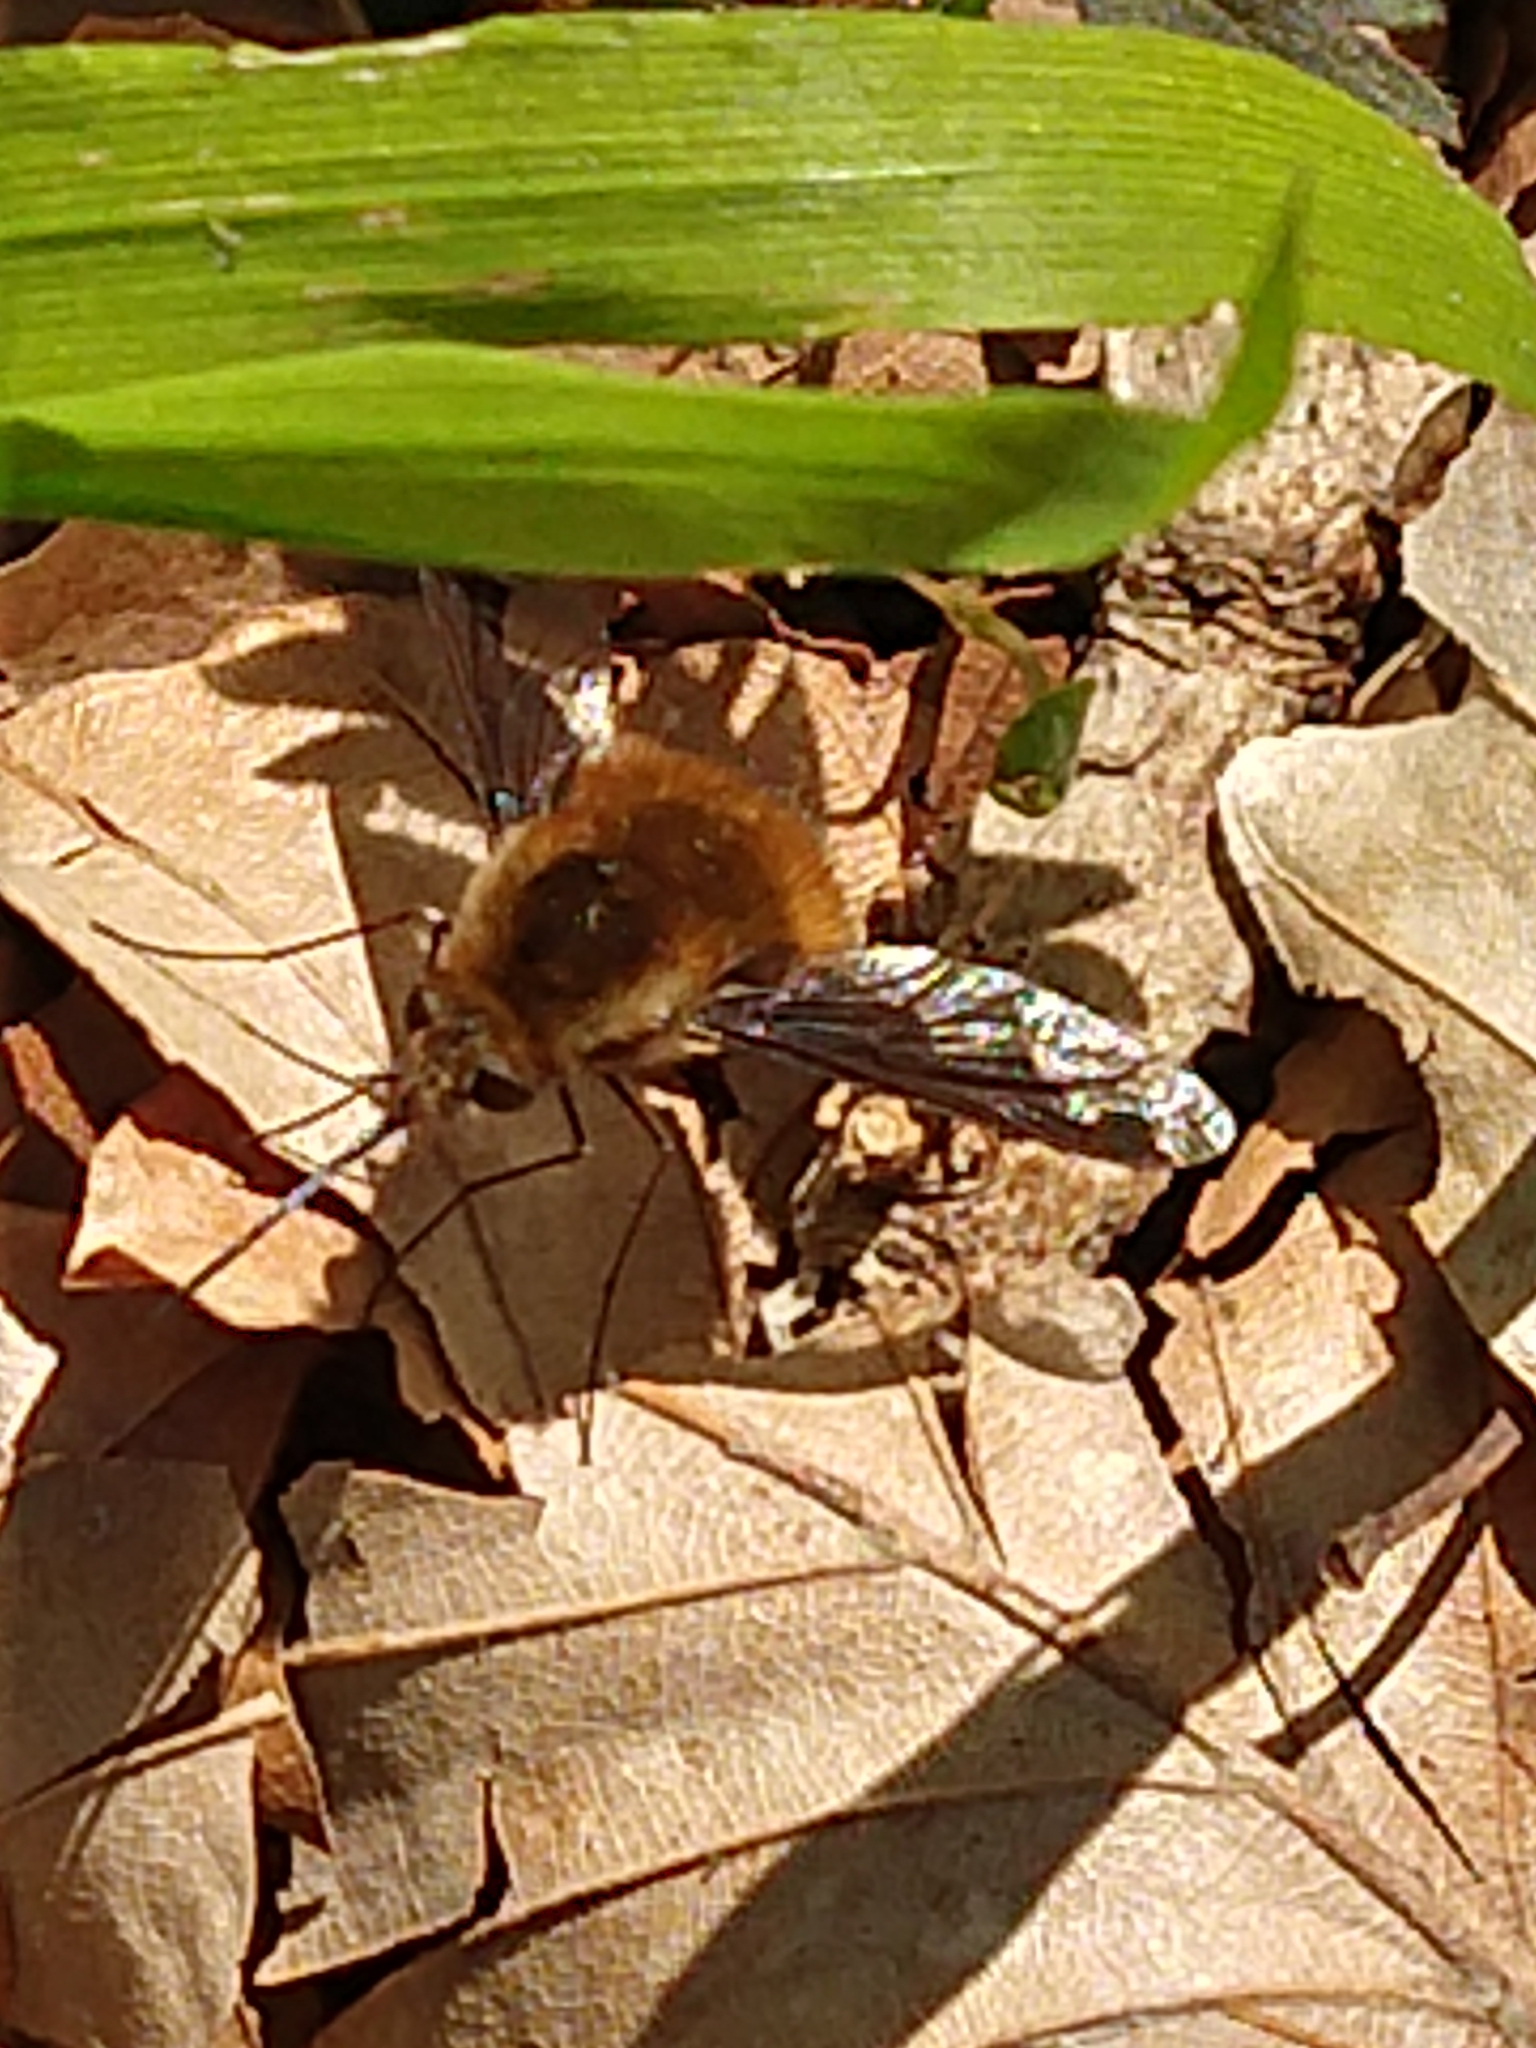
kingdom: Animalia
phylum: Arthropoda
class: Insecta
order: Diptera
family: Bombyliidae
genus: Bombylius
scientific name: Bombylius major
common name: Bee fly
